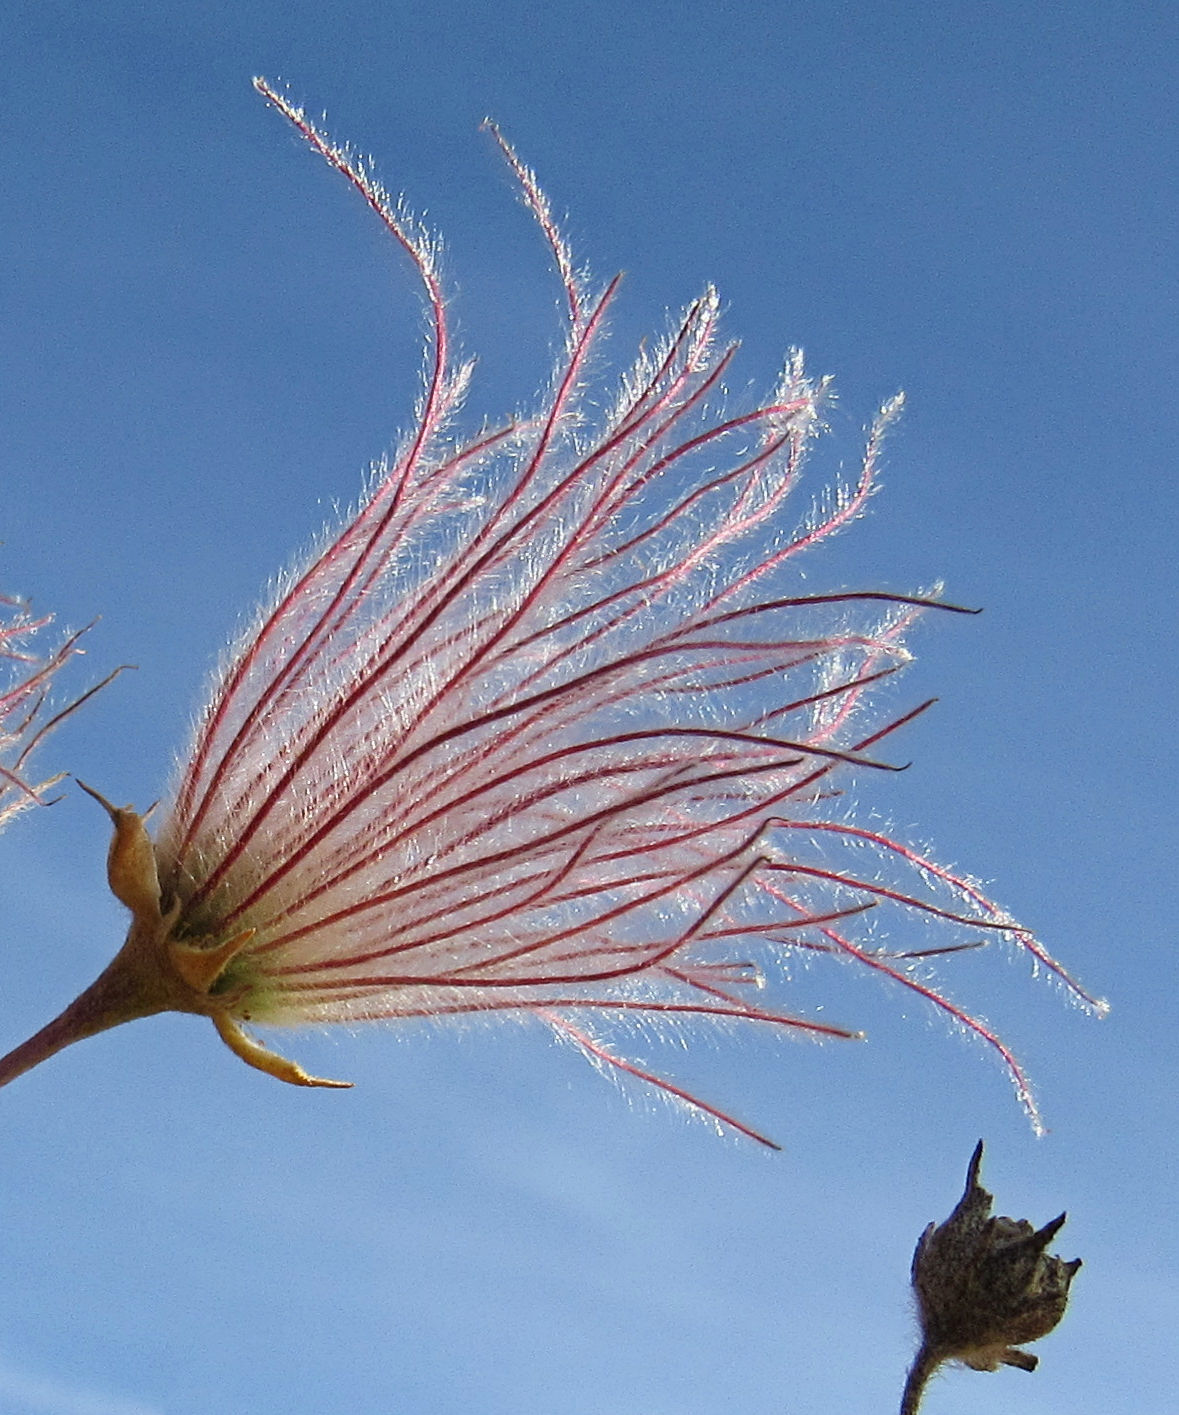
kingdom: Plantae
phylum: Tracheophyta
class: Magnoliopsida
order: Rosales
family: Rosaceae
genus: Fallugia
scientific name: Fallugia paradoxa
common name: Apache-plume
